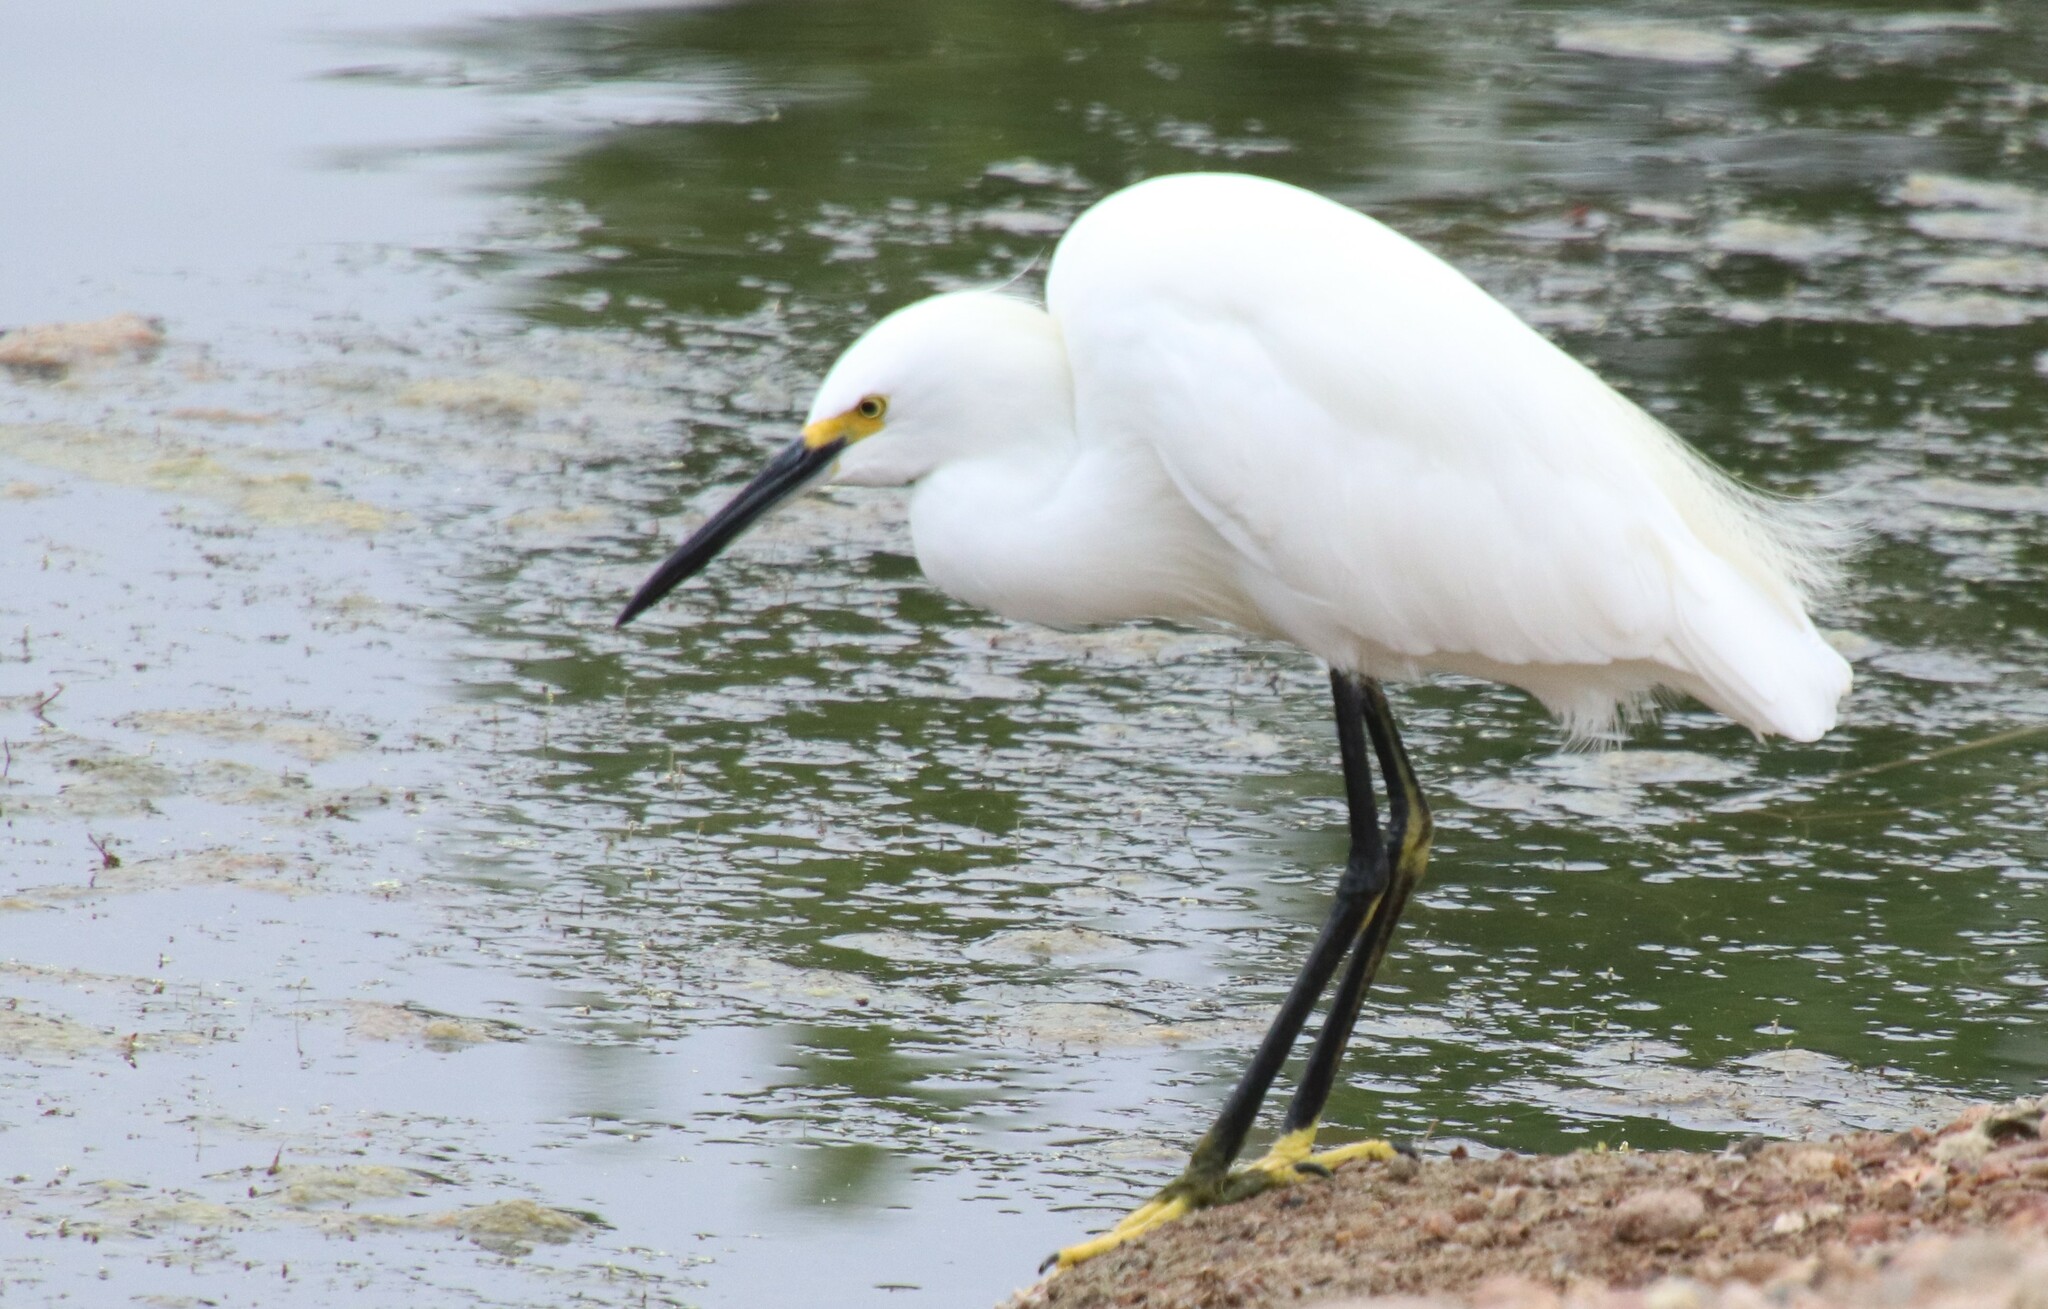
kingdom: Animalia
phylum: Chordata
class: Aves
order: Pelecaniformes
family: Ardeidae
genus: Egretta
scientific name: Egretta thula
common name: Snowy egret
